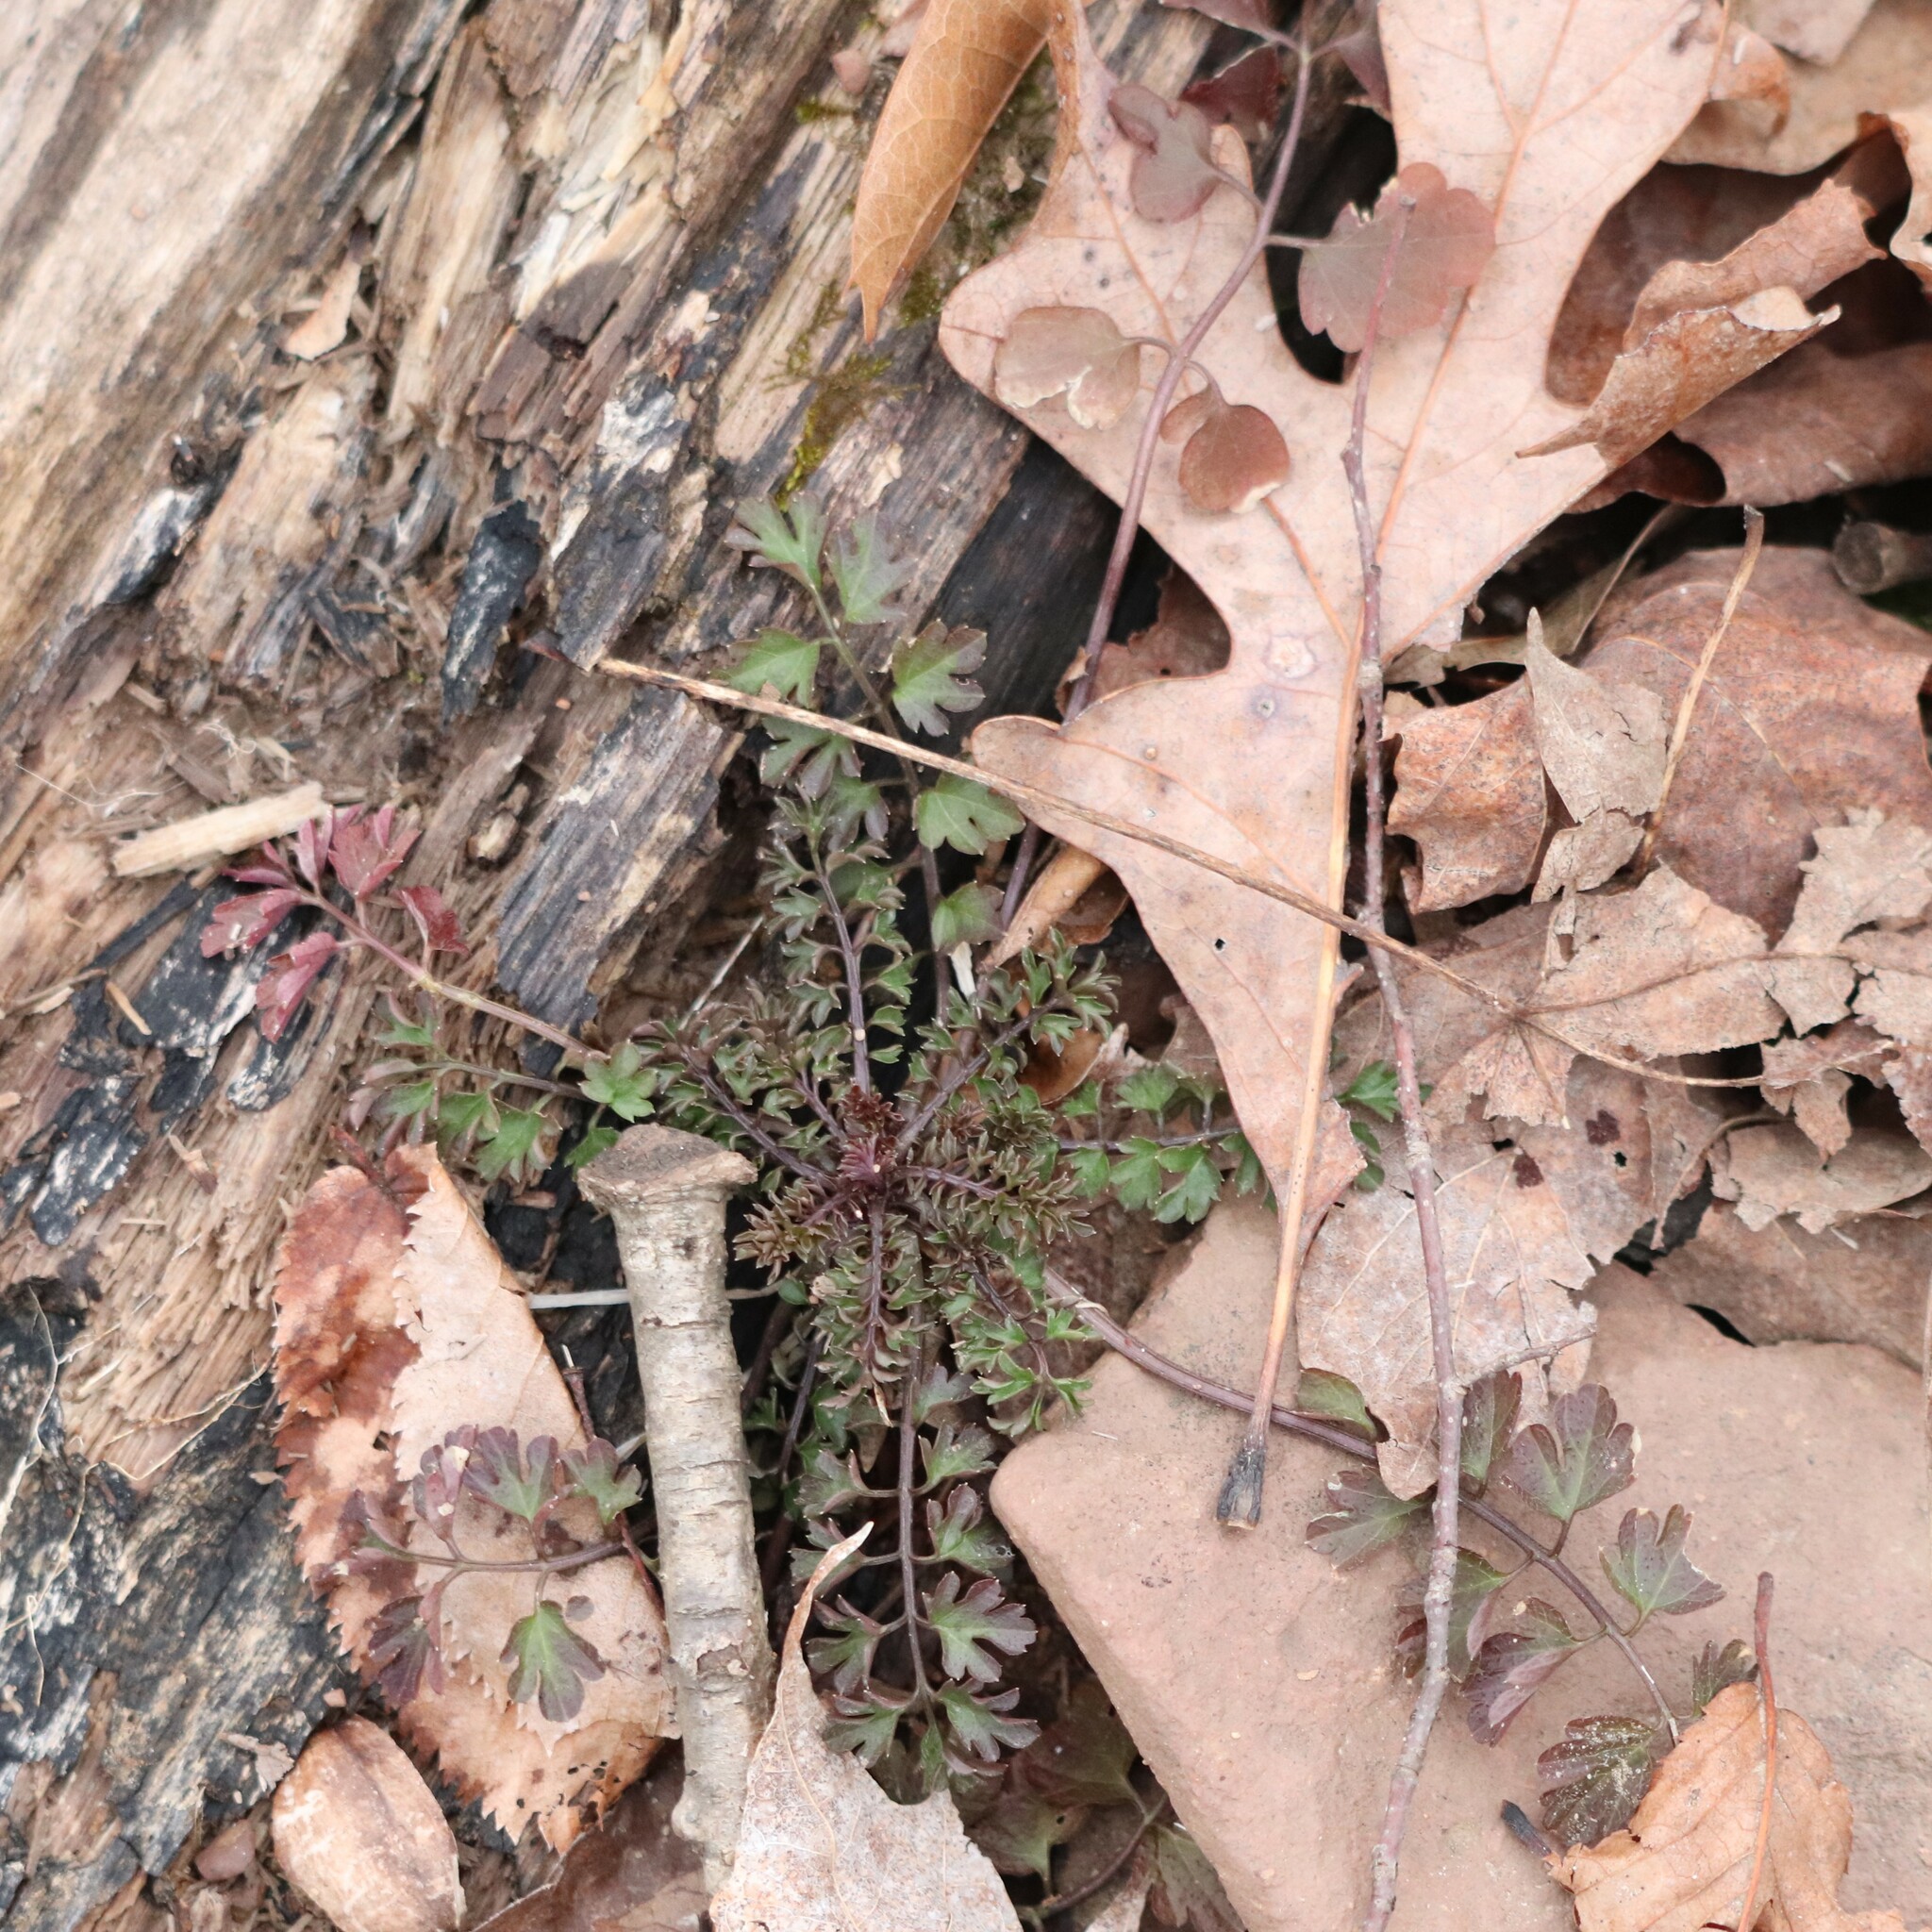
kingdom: Plantae
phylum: Tracheophyta
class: Magnoliopsida
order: Brassicales
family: Brassicaceae
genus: Cardamine
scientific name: Cardamine impatiens
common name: Narrow-leaved bitter-cress
